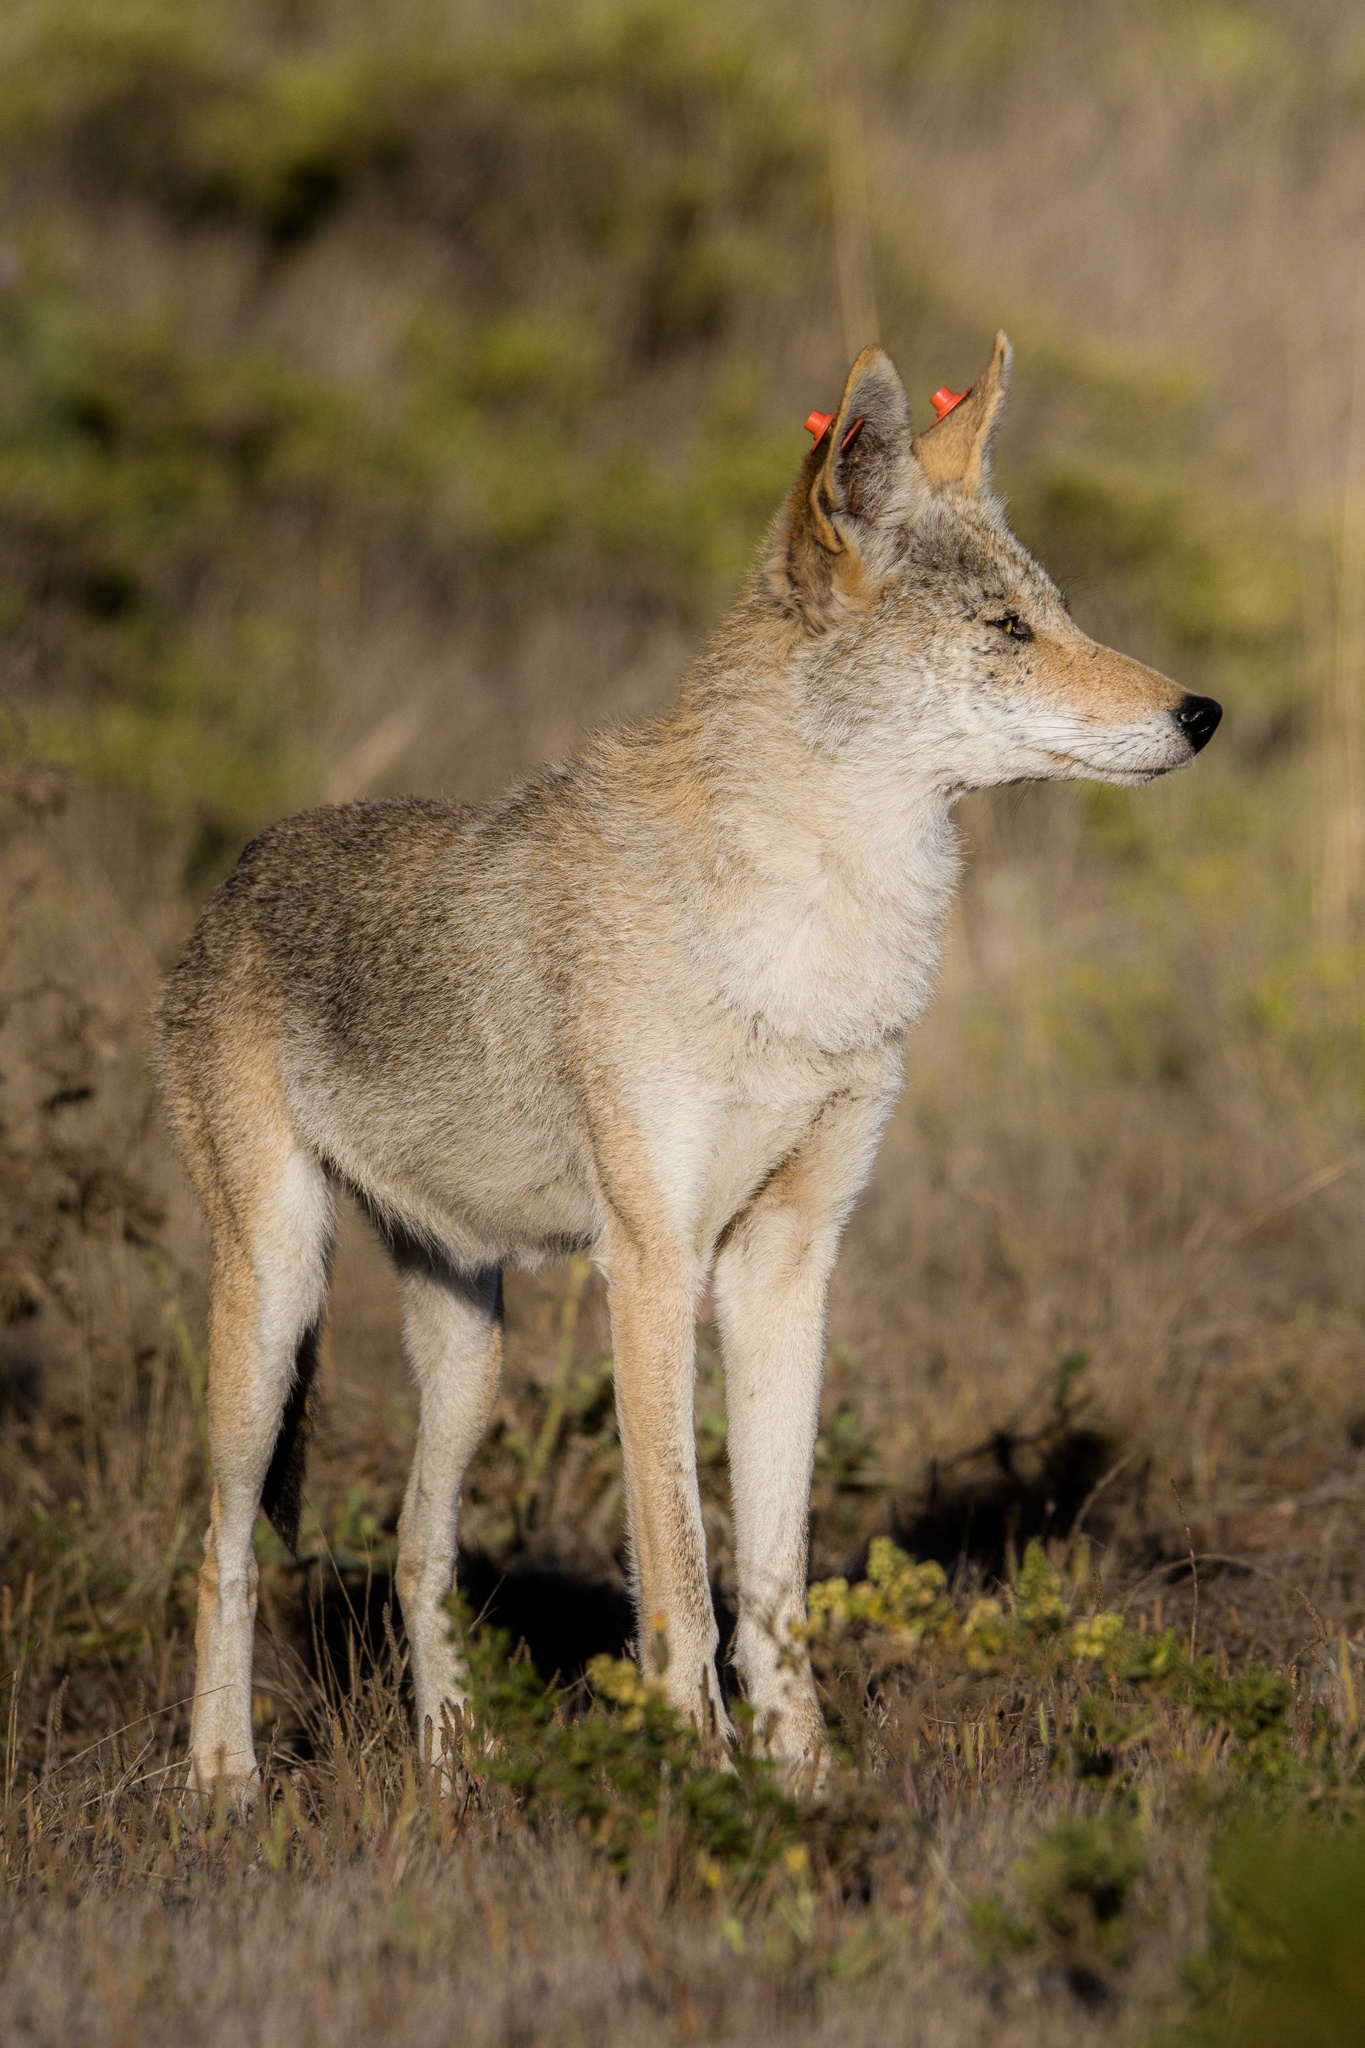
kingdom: Animalia
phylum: Chordata
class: Mammalia
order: Carnivora
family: Canidae
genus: Canis
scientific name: Canis latrans
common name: Coyote
